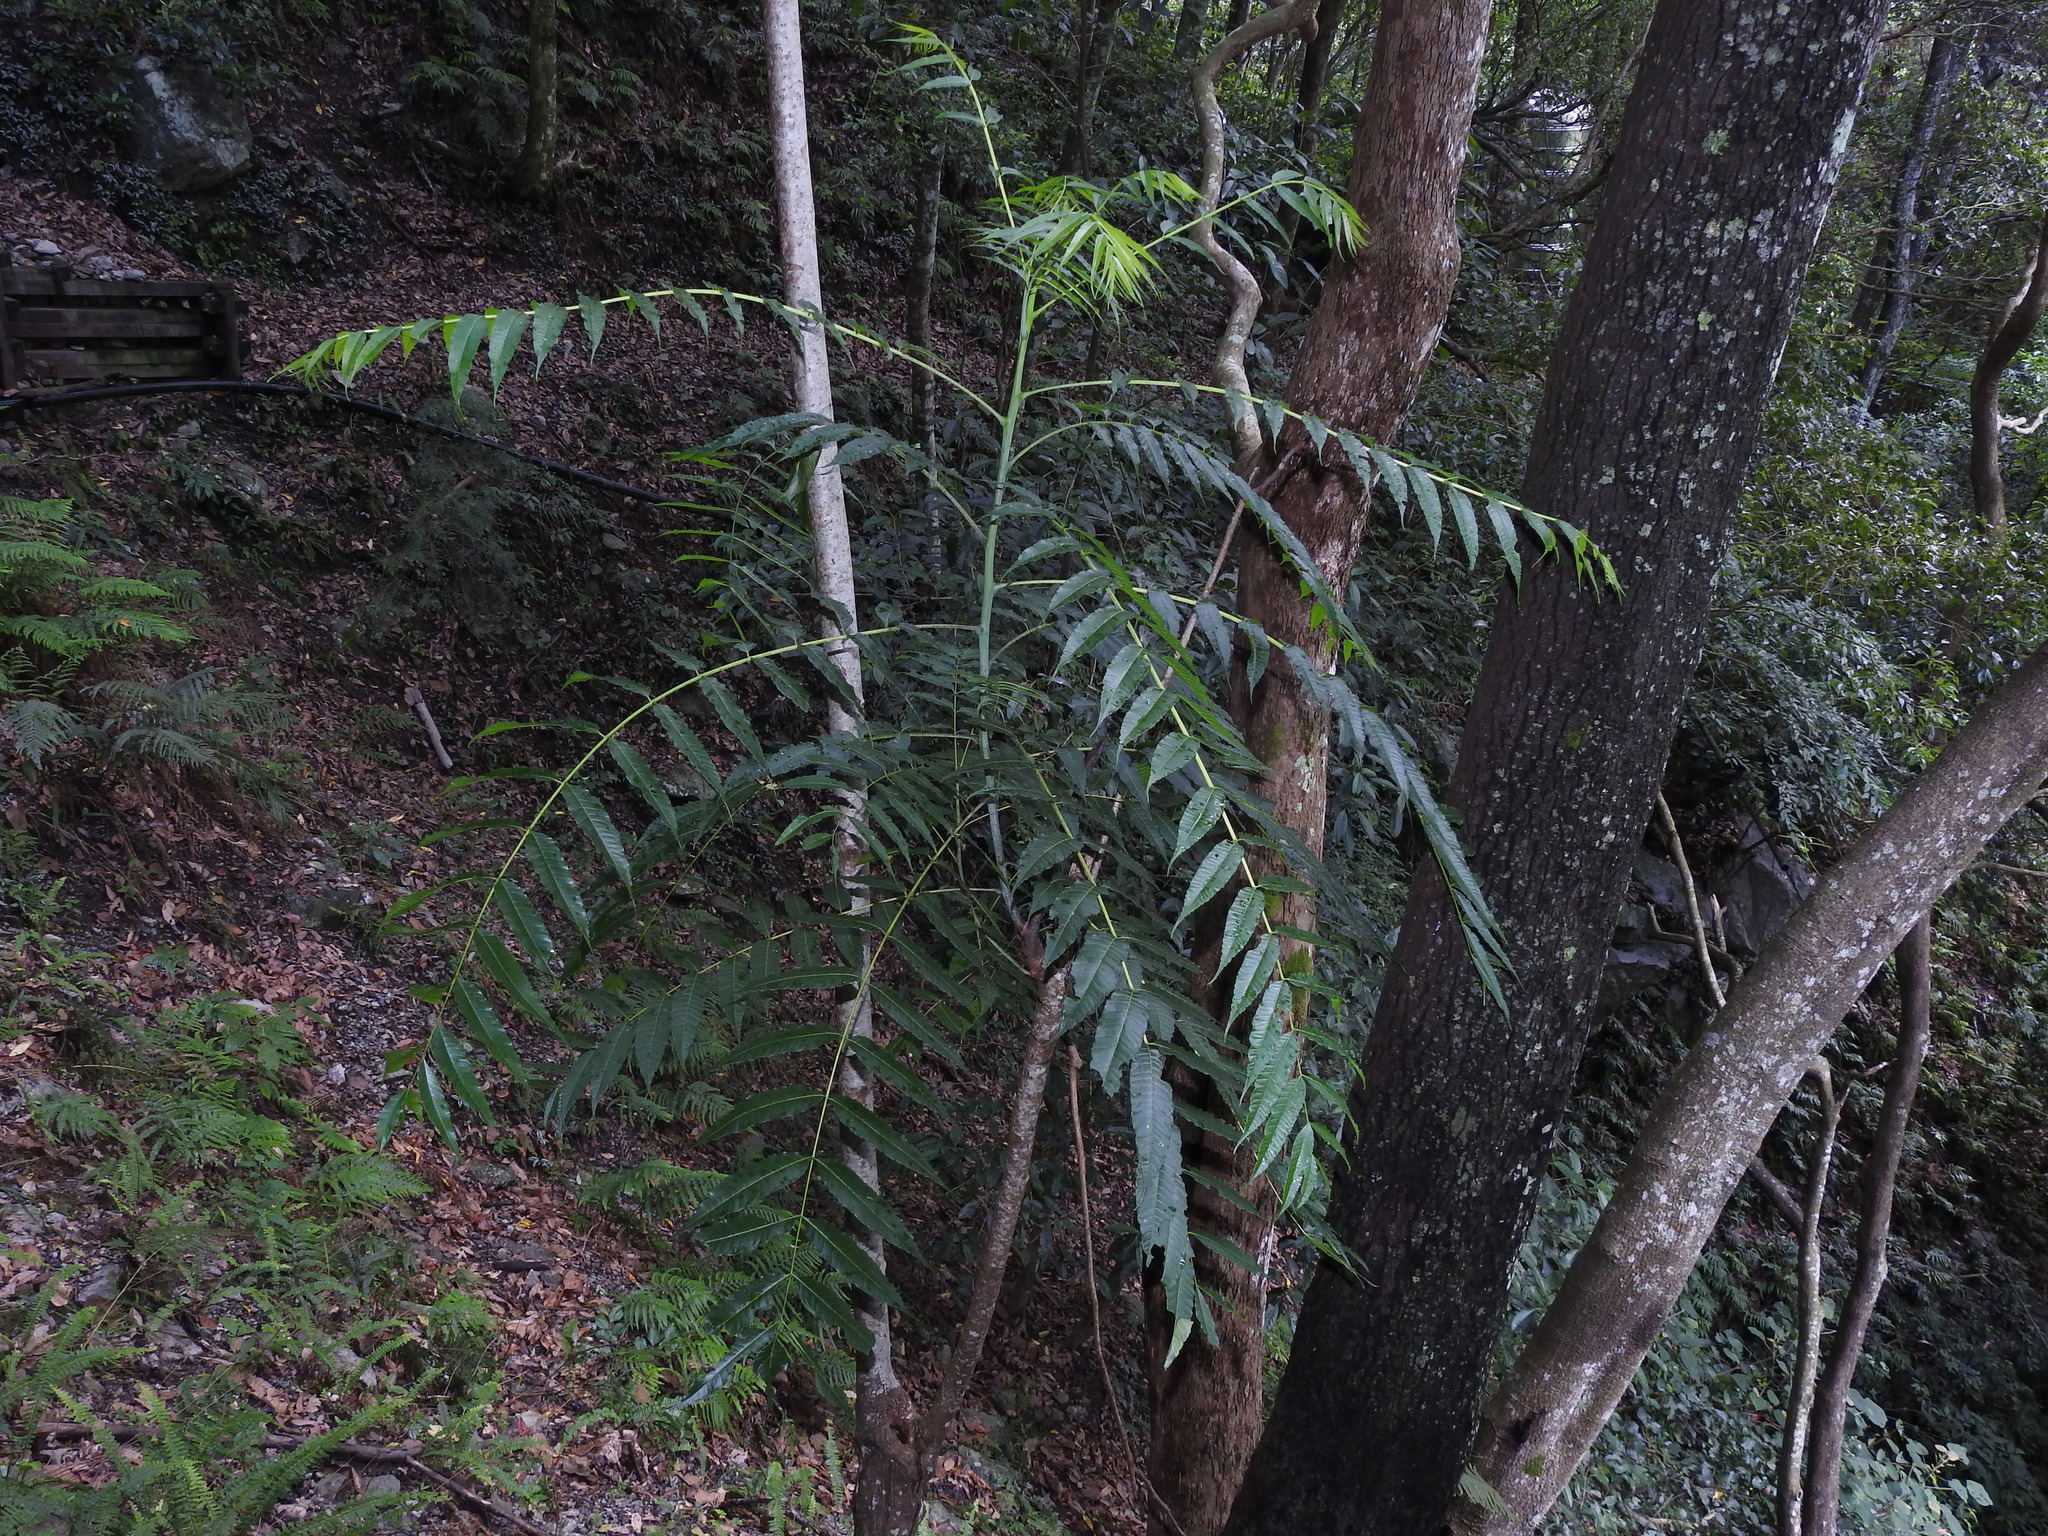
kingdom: Plantae
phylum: Tracheophyta
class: Magnoliopsida
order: Sapindales
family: Meliaceae
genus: Toona
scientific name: Toona sinensis
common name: Red toon
